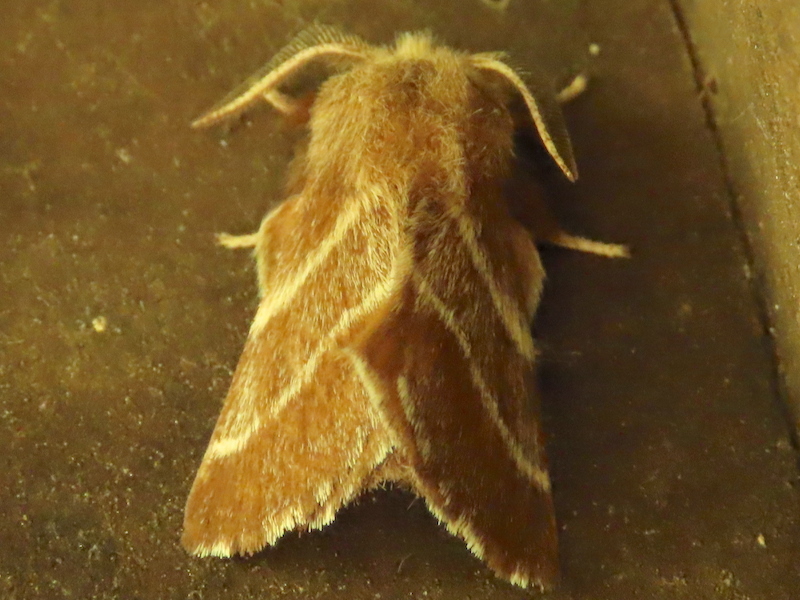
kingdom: Animalia
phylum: Arthropoda
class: Insecta
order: Lepidoptera
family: Lasiocampidae
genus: Malacosoma
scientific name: Malacosoma americana
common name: Eastern tent caterpillar moth
